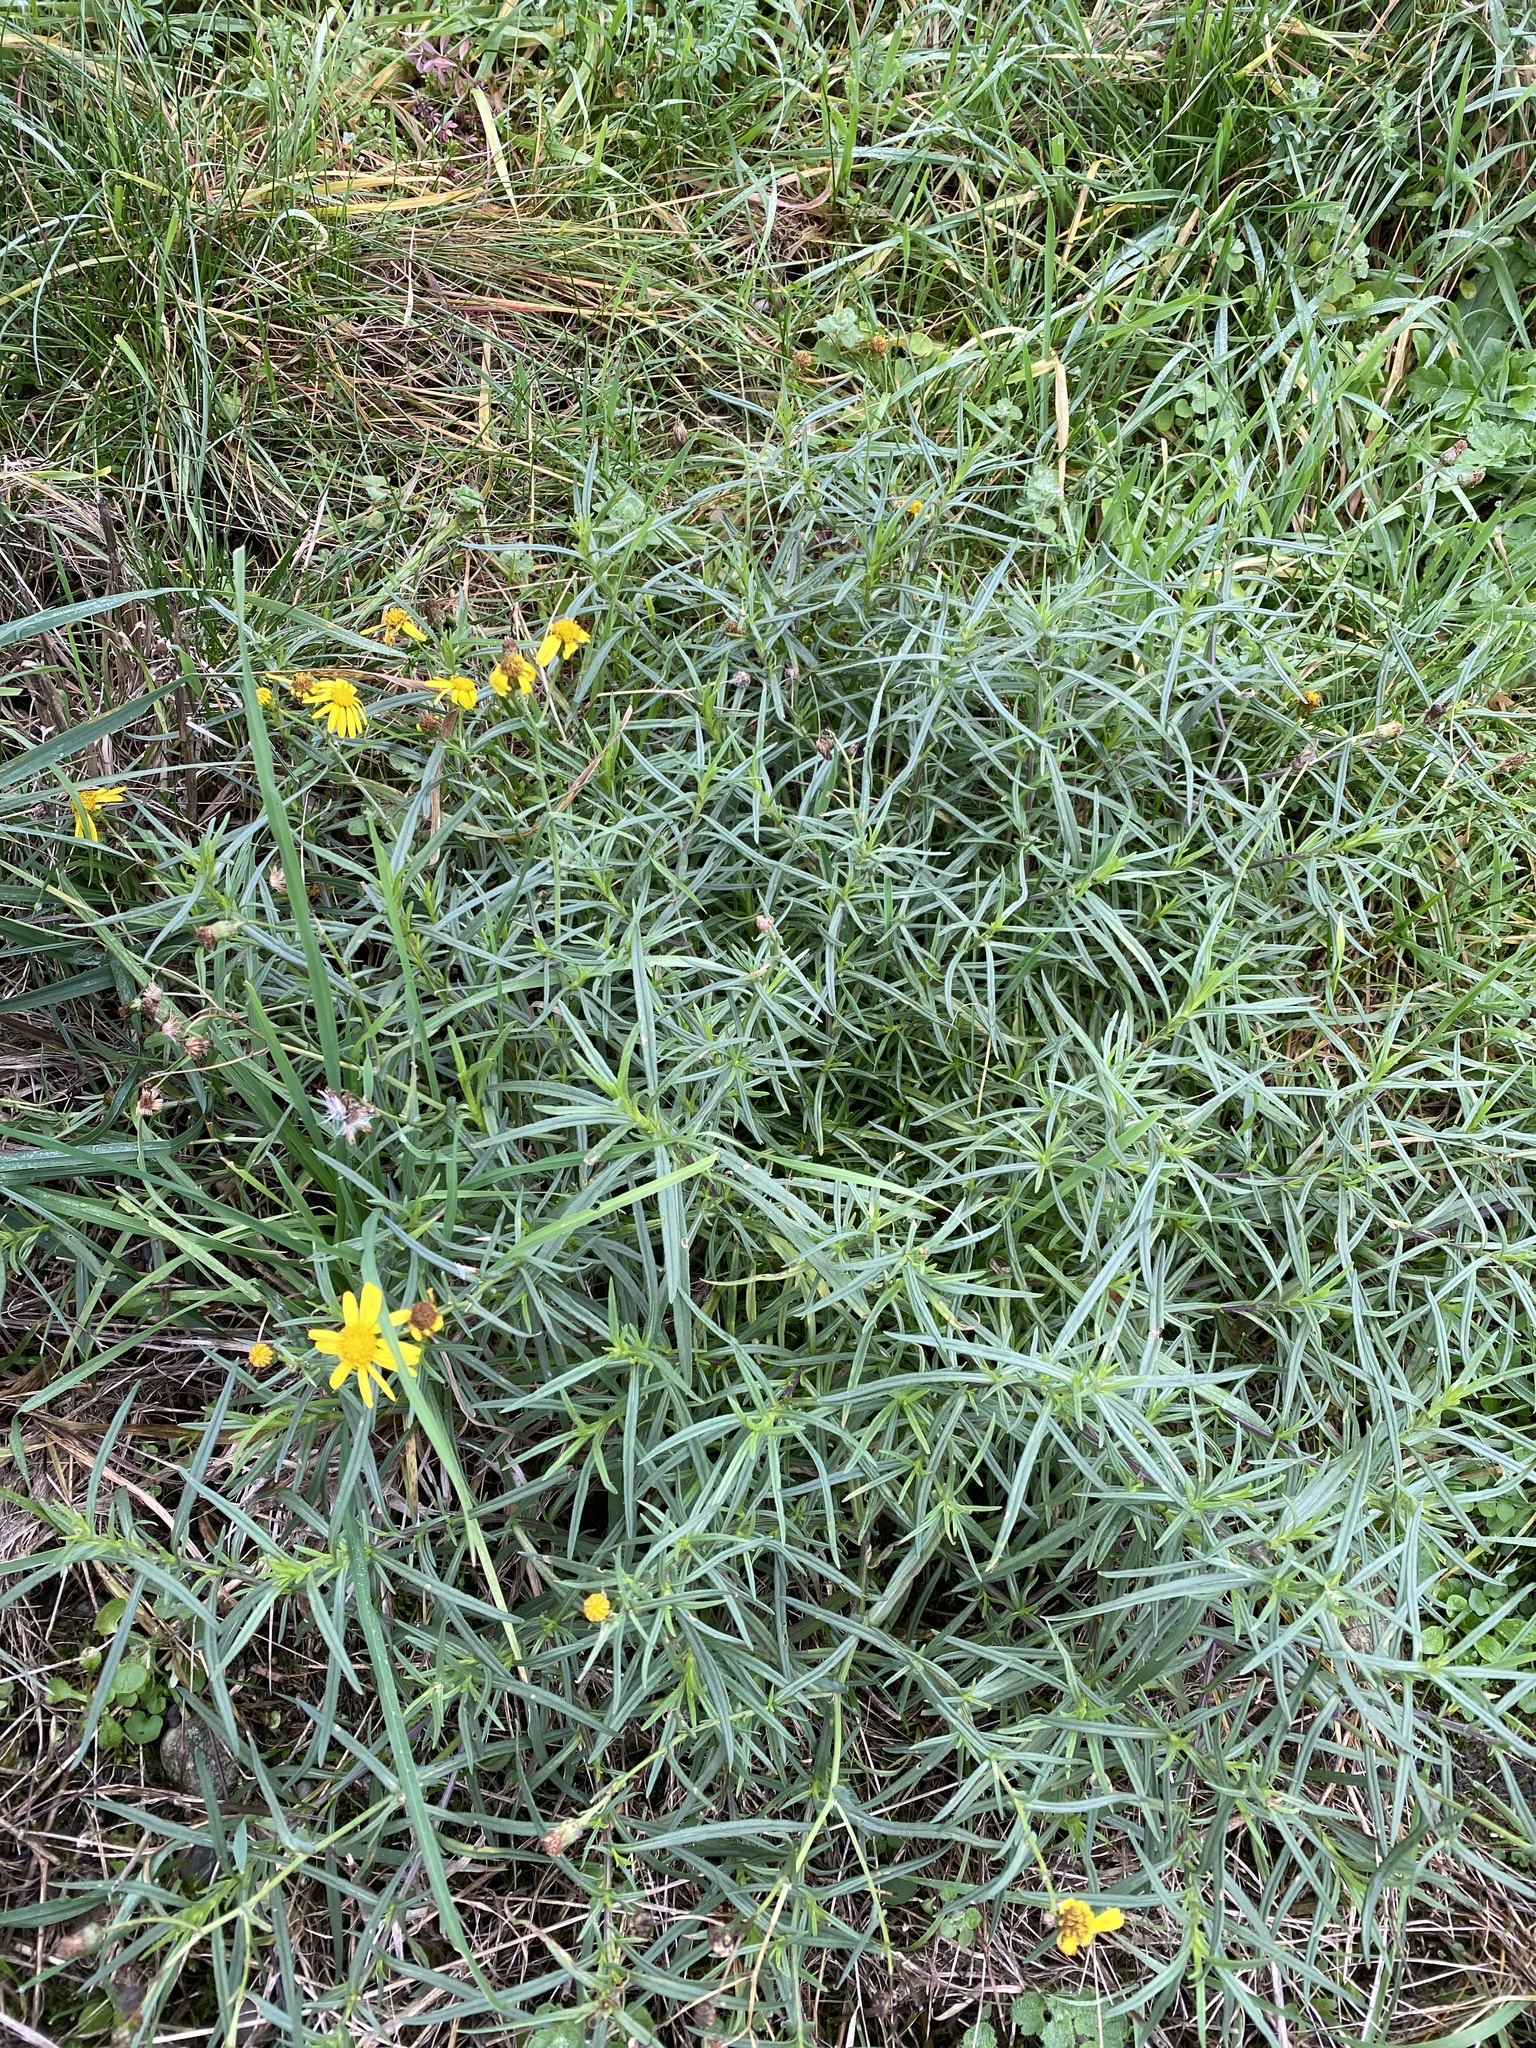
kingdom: Plantae
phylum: Tracheophyta
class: Magnoliopsida
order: Asterales
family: Asteraceae
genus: Senecio
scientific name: Senecio inaequidens
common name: Narrow-leaved ragwort
